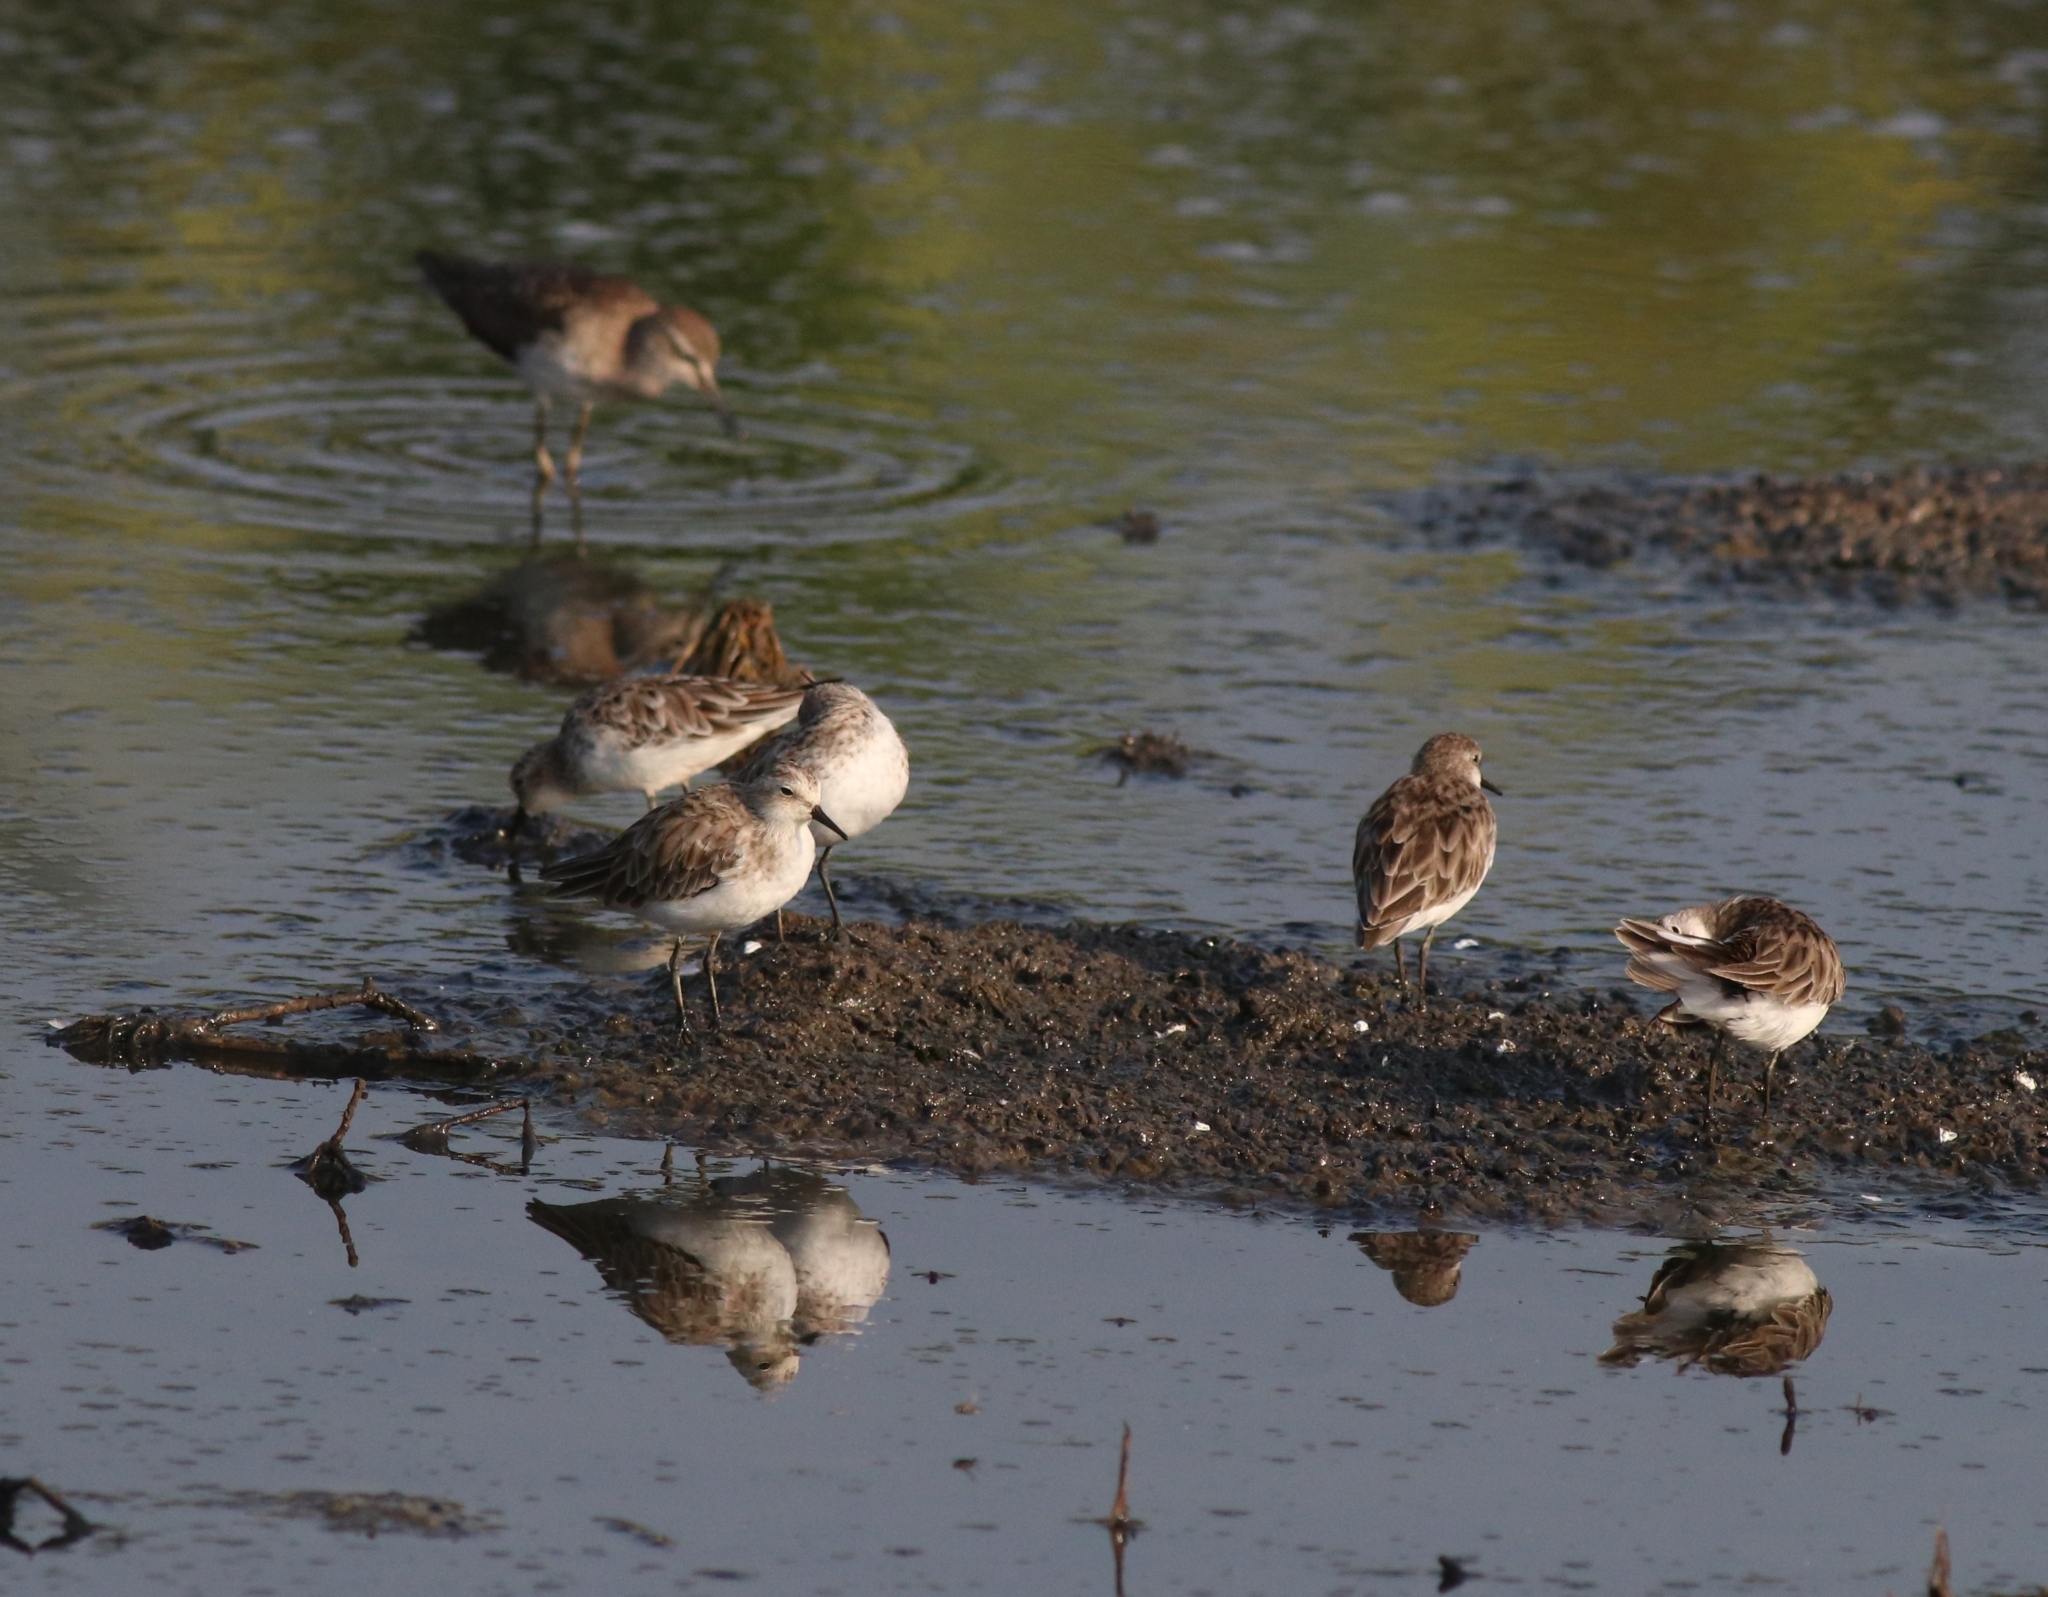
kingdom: Animalia
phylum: Chordata
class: Aves
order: Charadriiformes
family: Scolopacidae
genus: Calidris
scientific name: Calidris minuta
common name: Little stint
